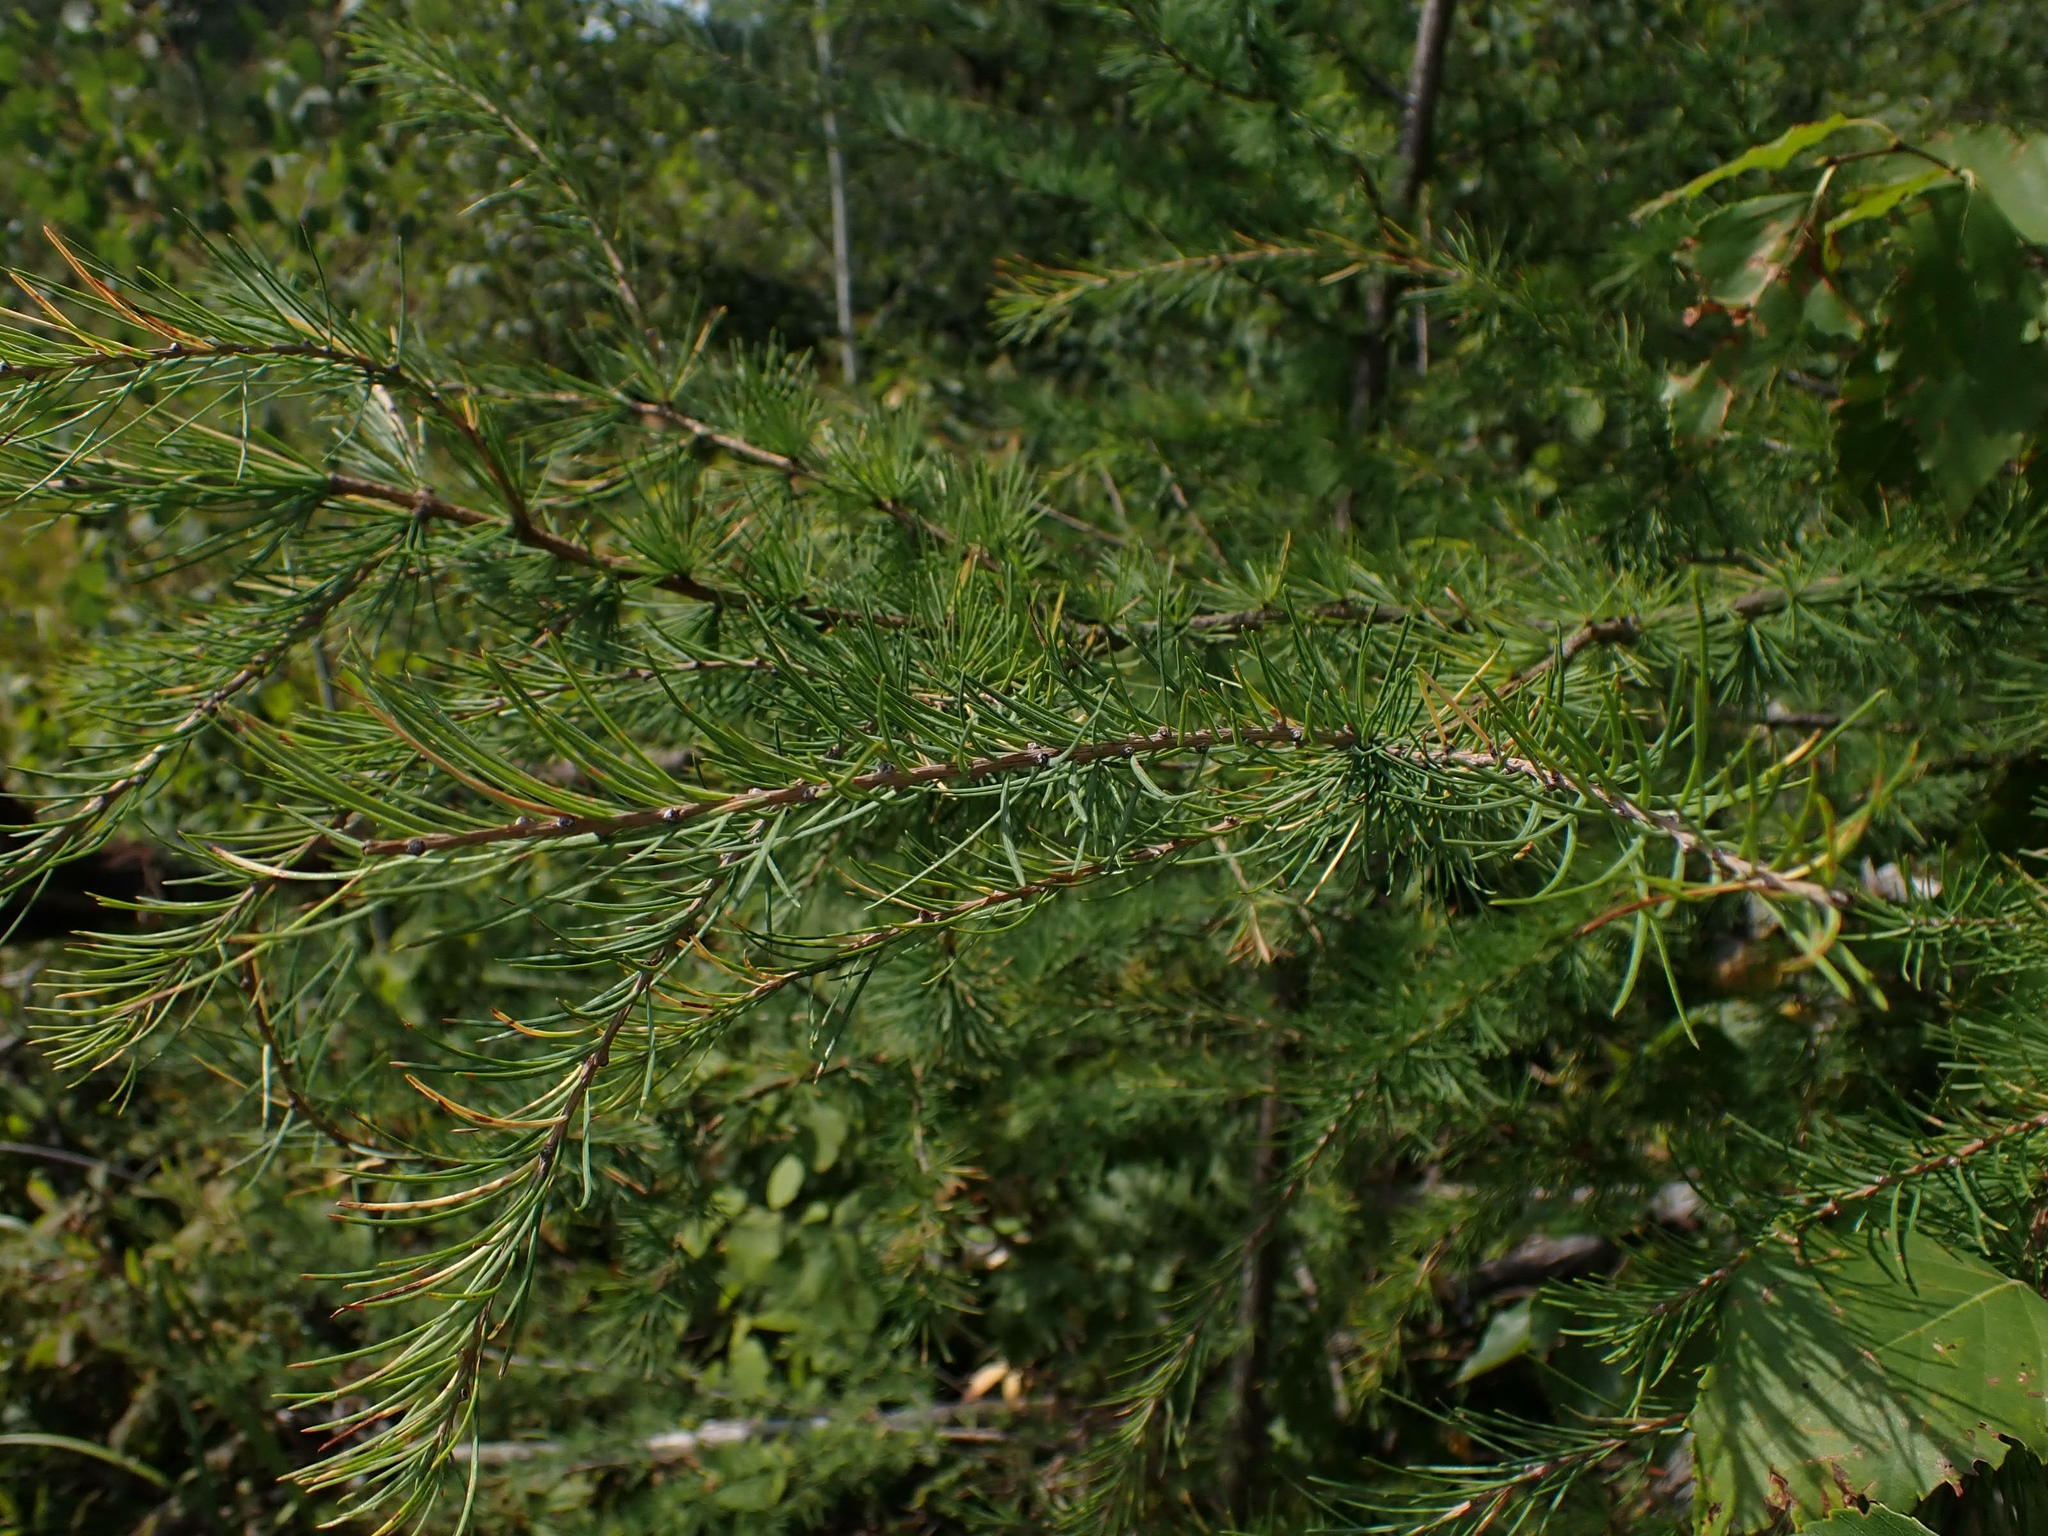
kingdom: Plantae
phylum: Tracheophyta
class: Pinopsida
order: Pinales
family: Pinaceae
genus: Larix
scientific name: Larix laricina
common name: American larch
